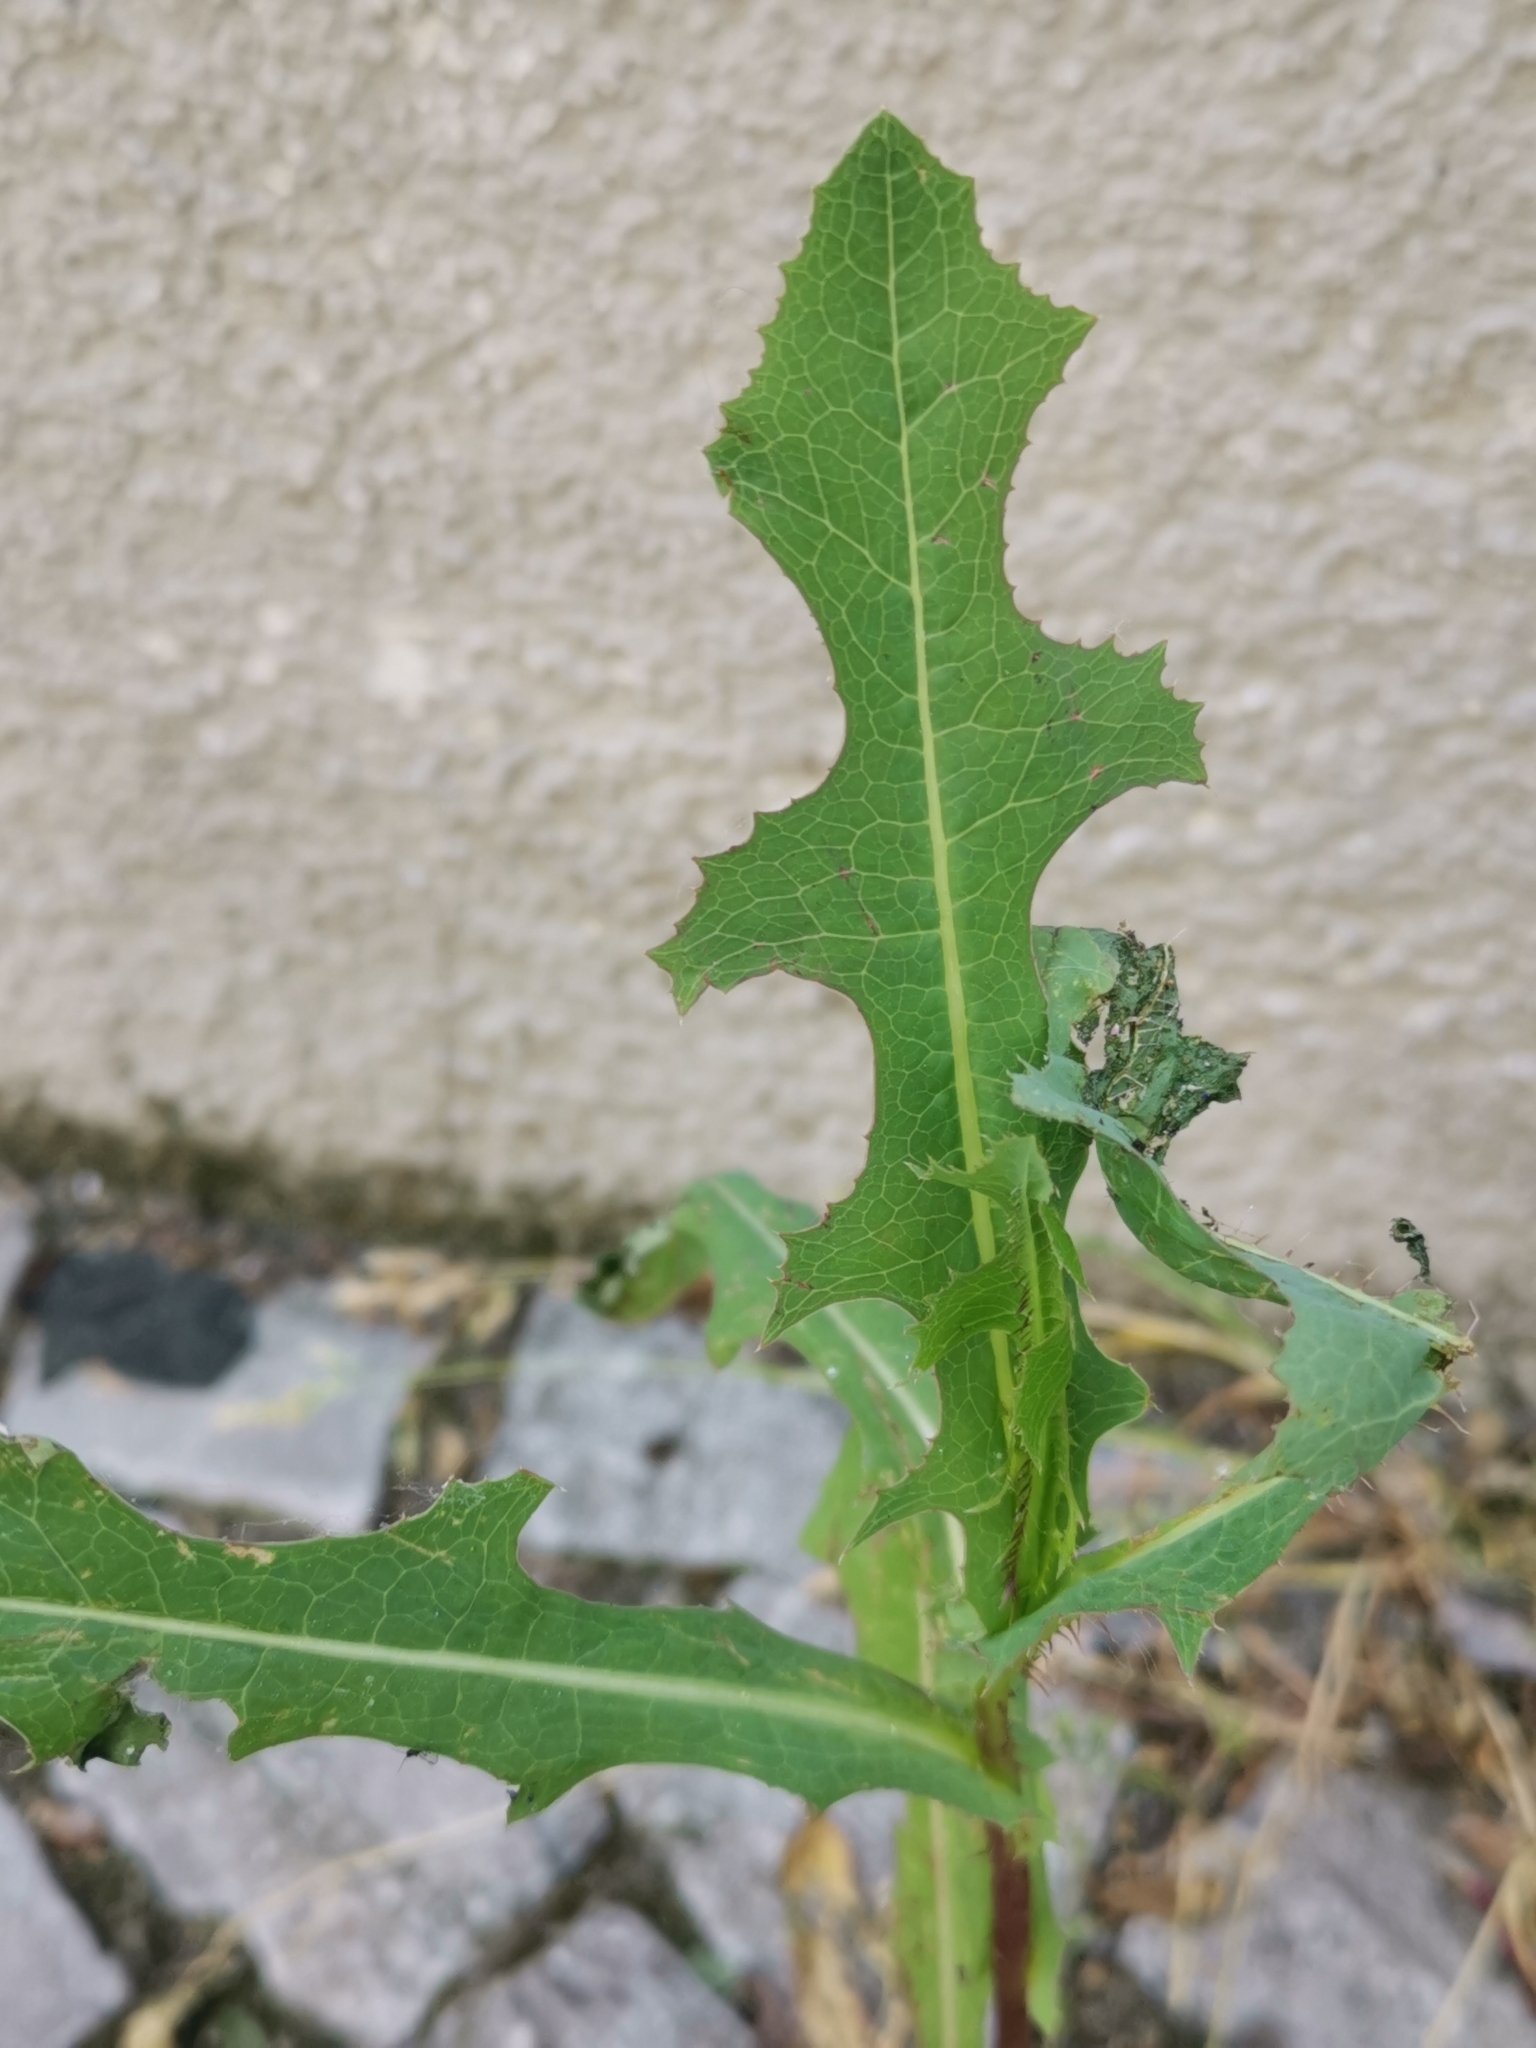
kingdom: Plantae
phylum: Tracheophyta
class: Magnoliopsida
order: Asterales
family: Asteraceae
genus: Lactuca
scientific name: Lactuca serriola
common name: Prickly lettuce
